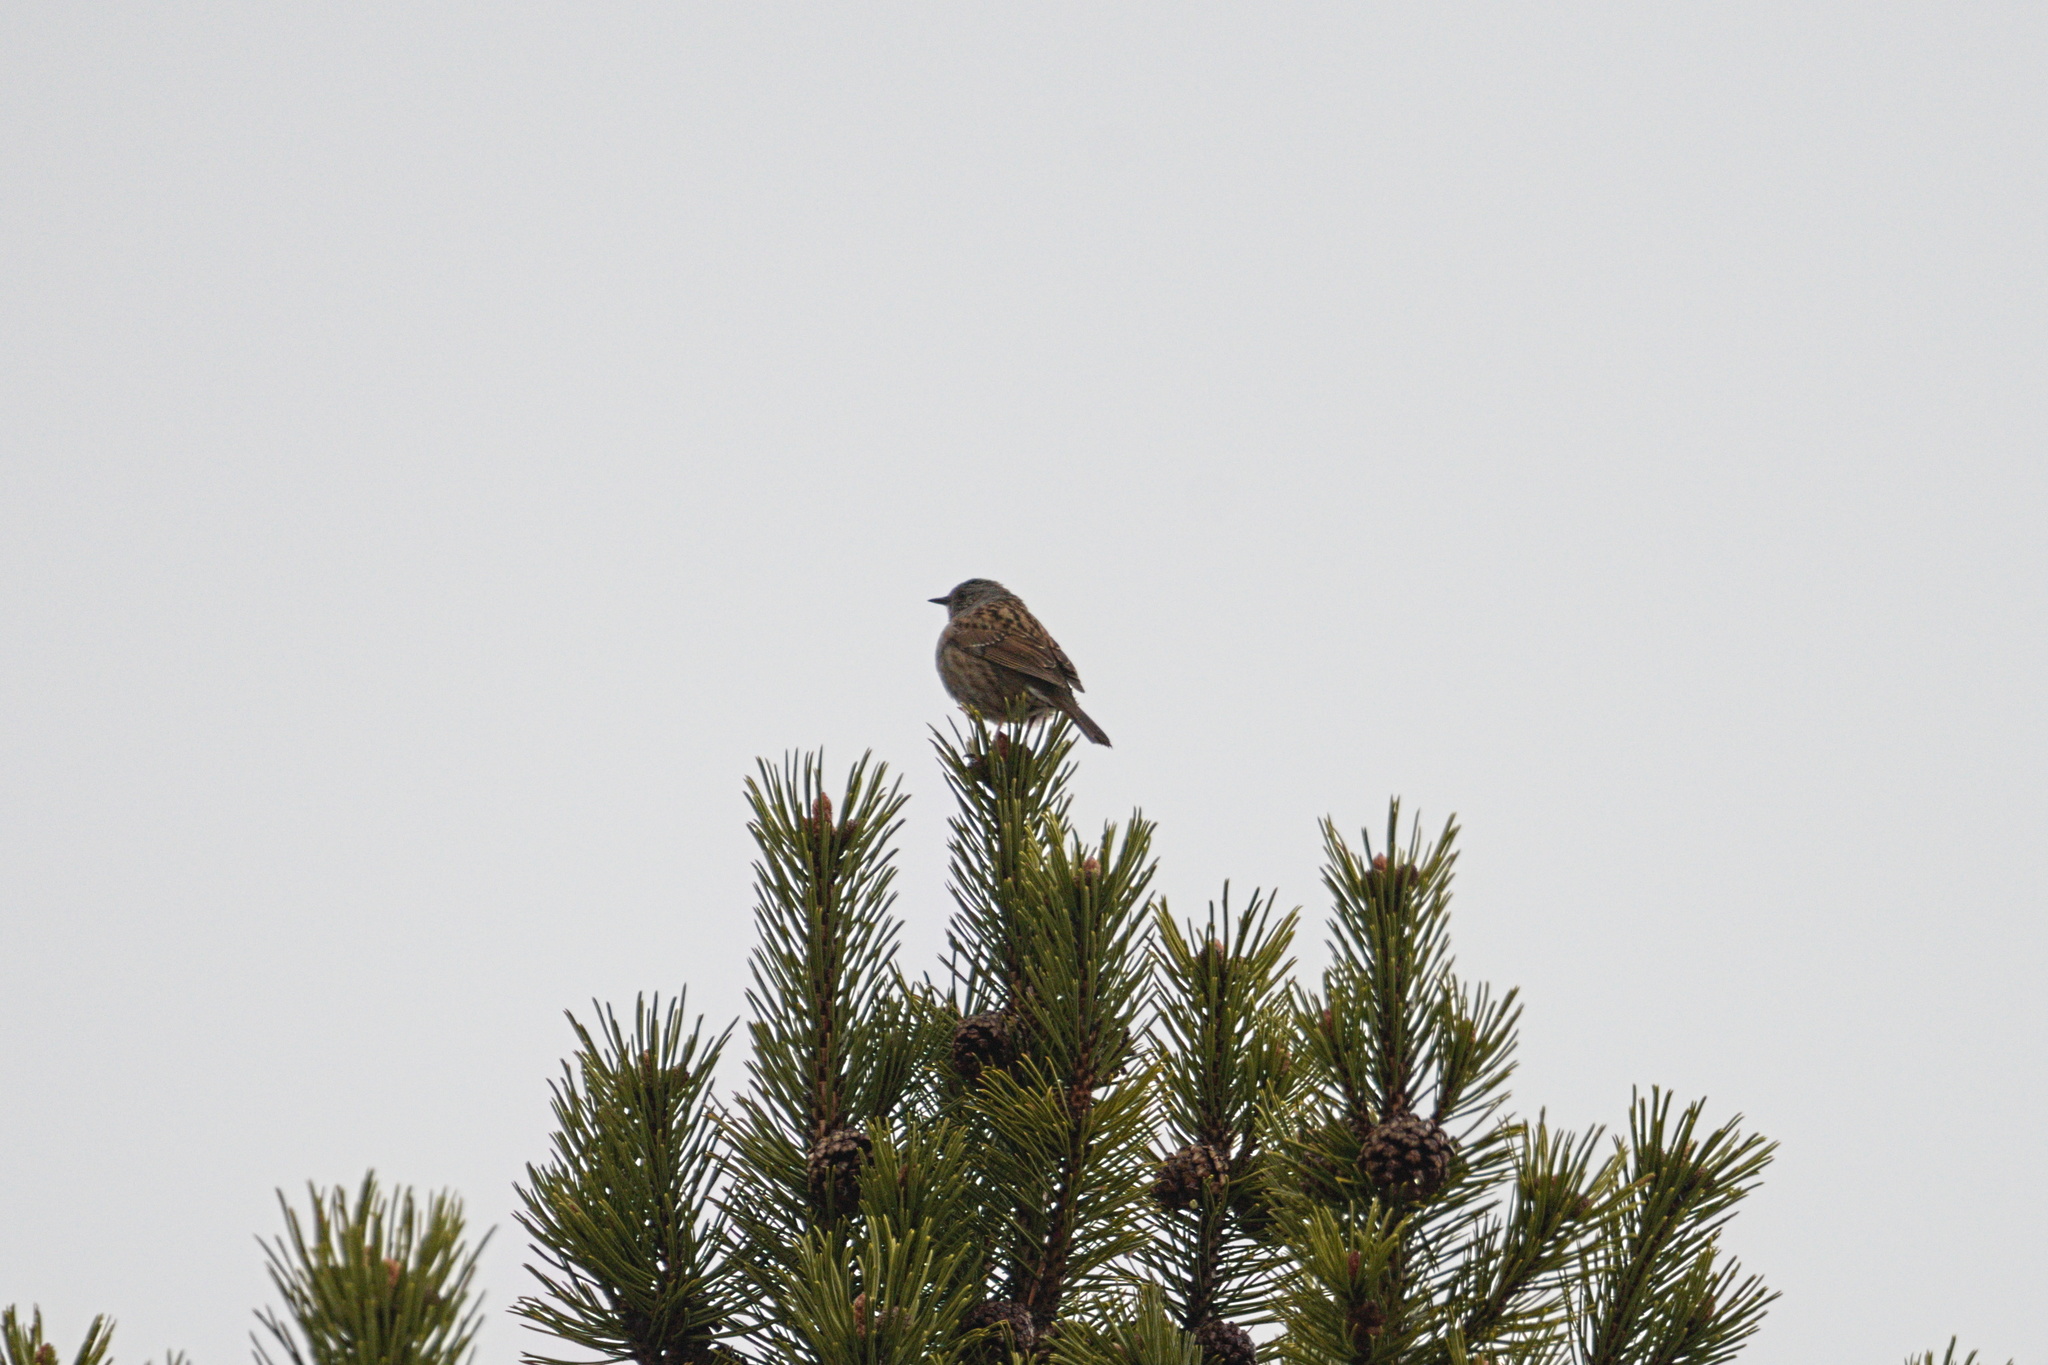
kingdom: Animalia
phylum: Chordata
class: Aves
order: Passeriformes
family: Prunellidae
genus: Prunella
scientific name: Prunella modularis
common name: Dunnock
